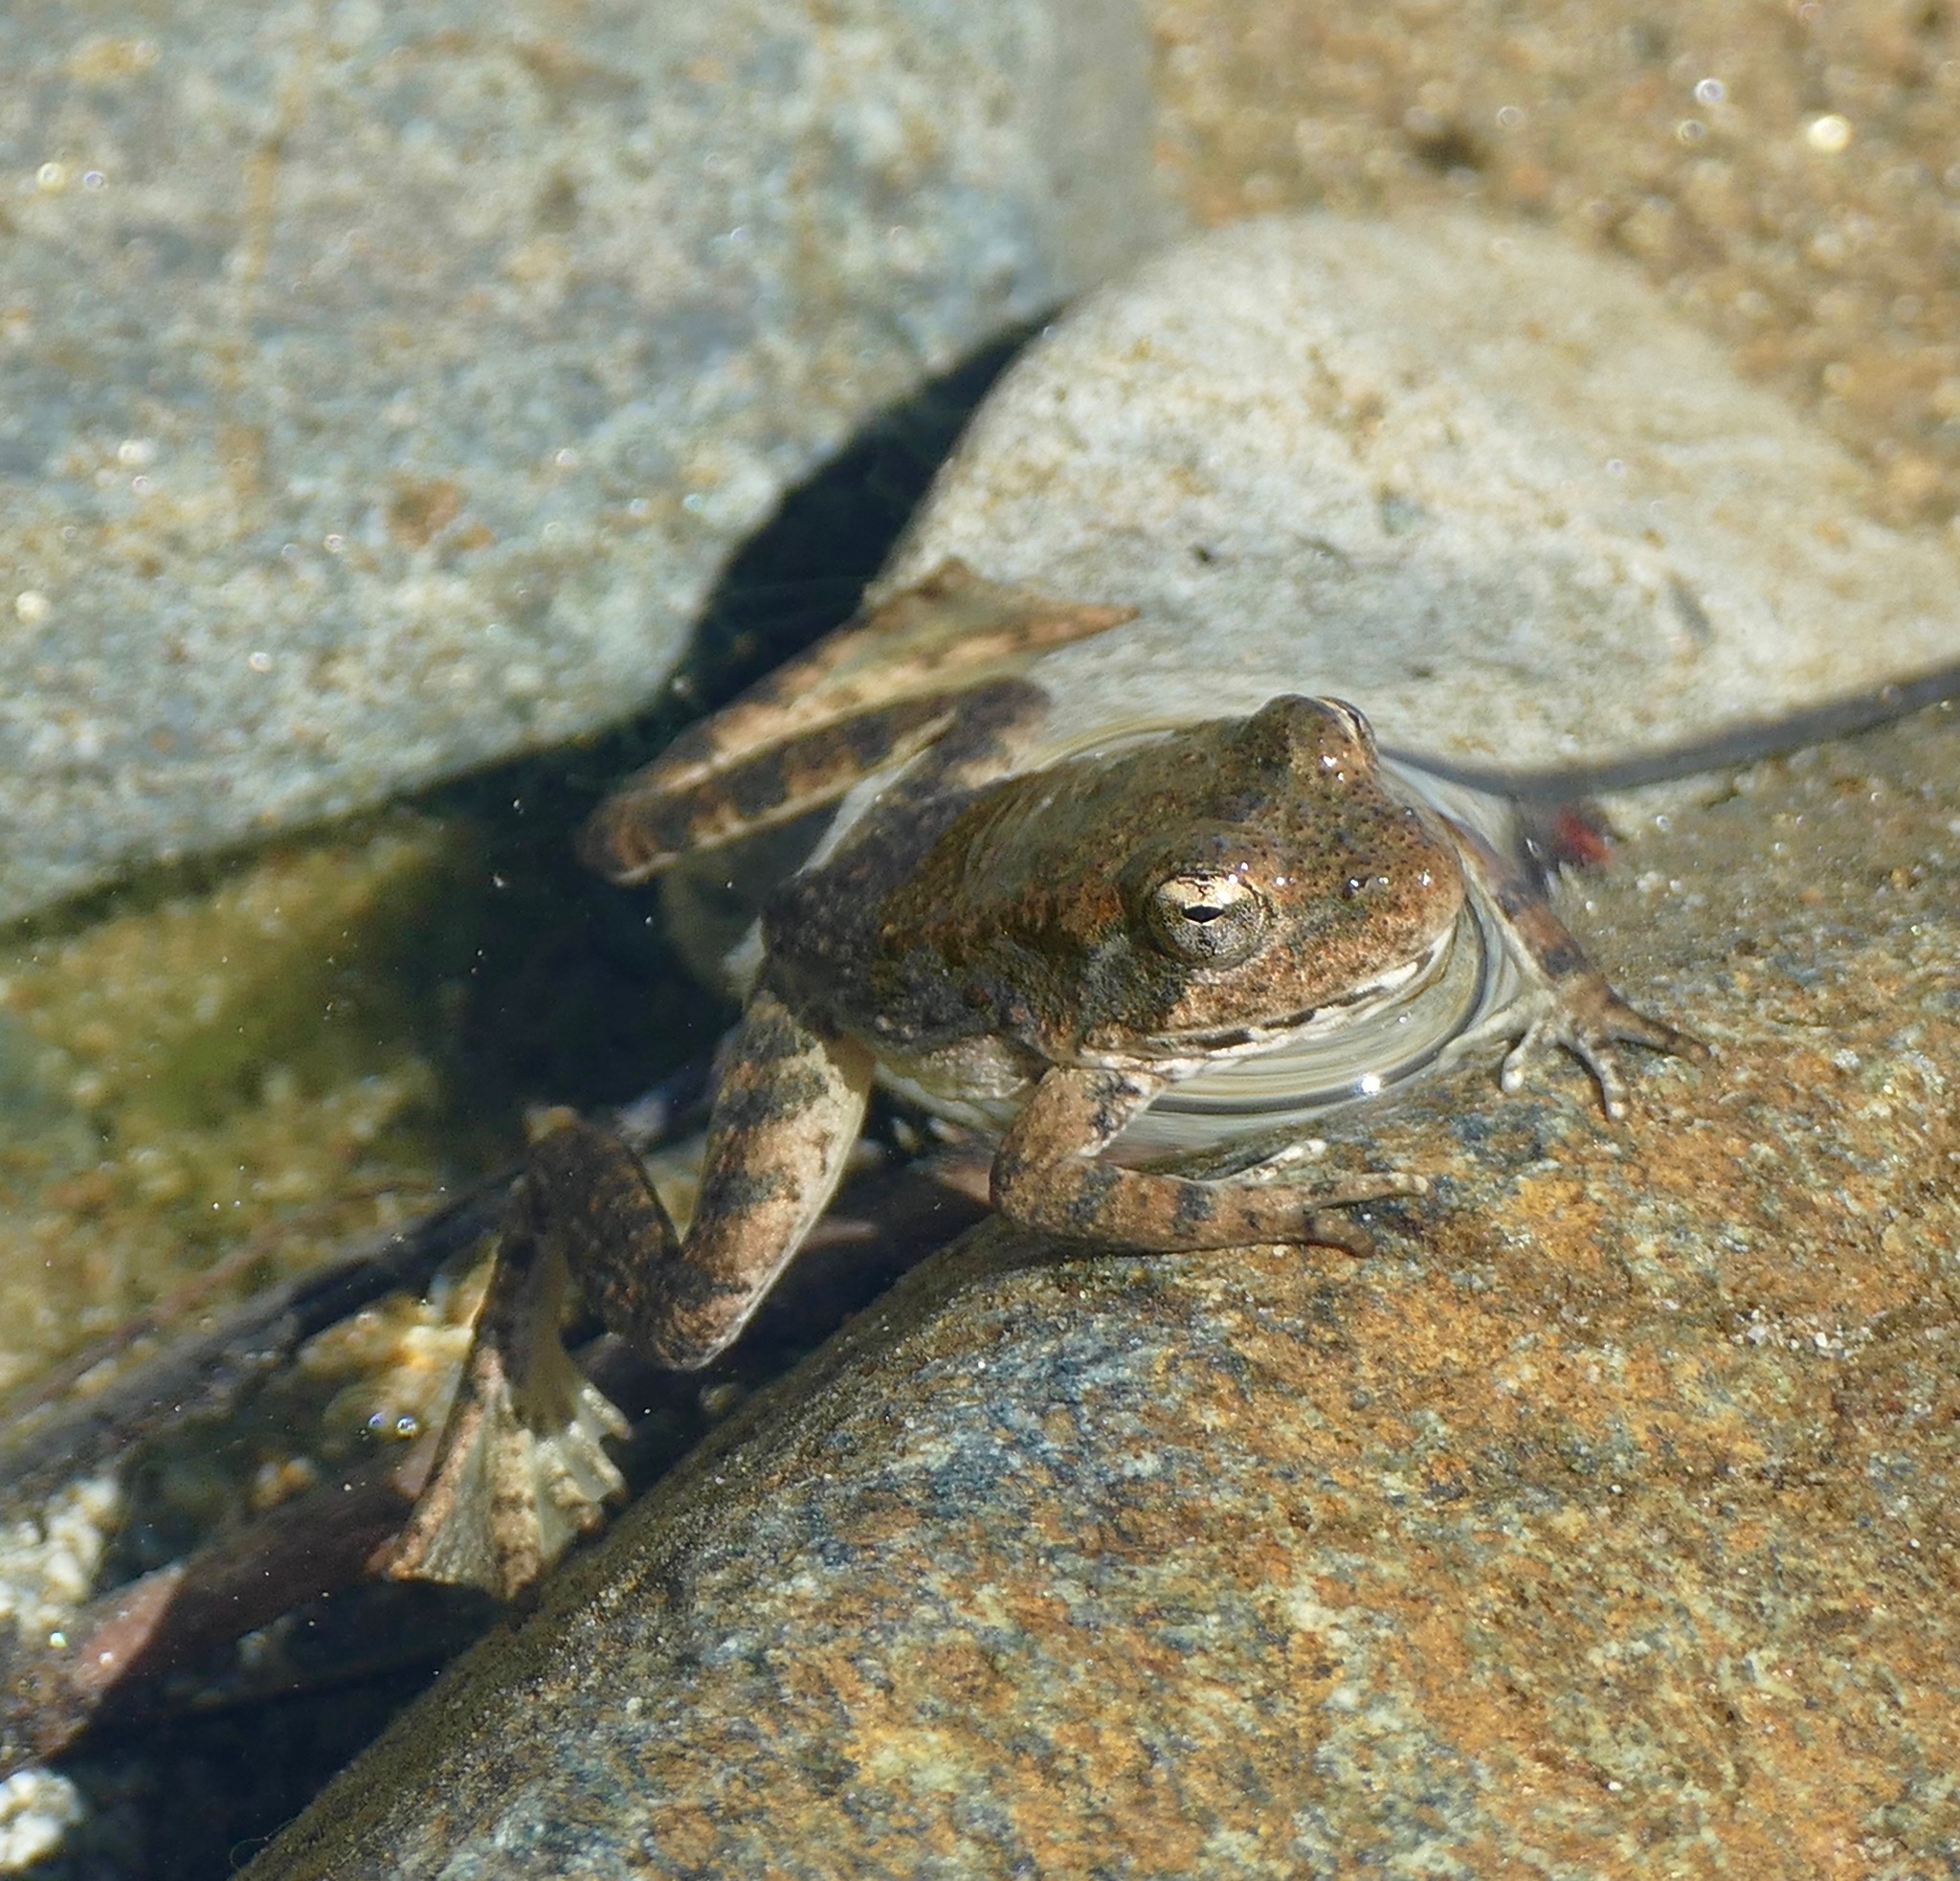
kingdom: Animalia
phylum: Chordata
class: Amphibia
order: Anura
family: Ranidae
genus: Rana
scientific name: Rana boylii
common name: Foothill yellow-legged frog
